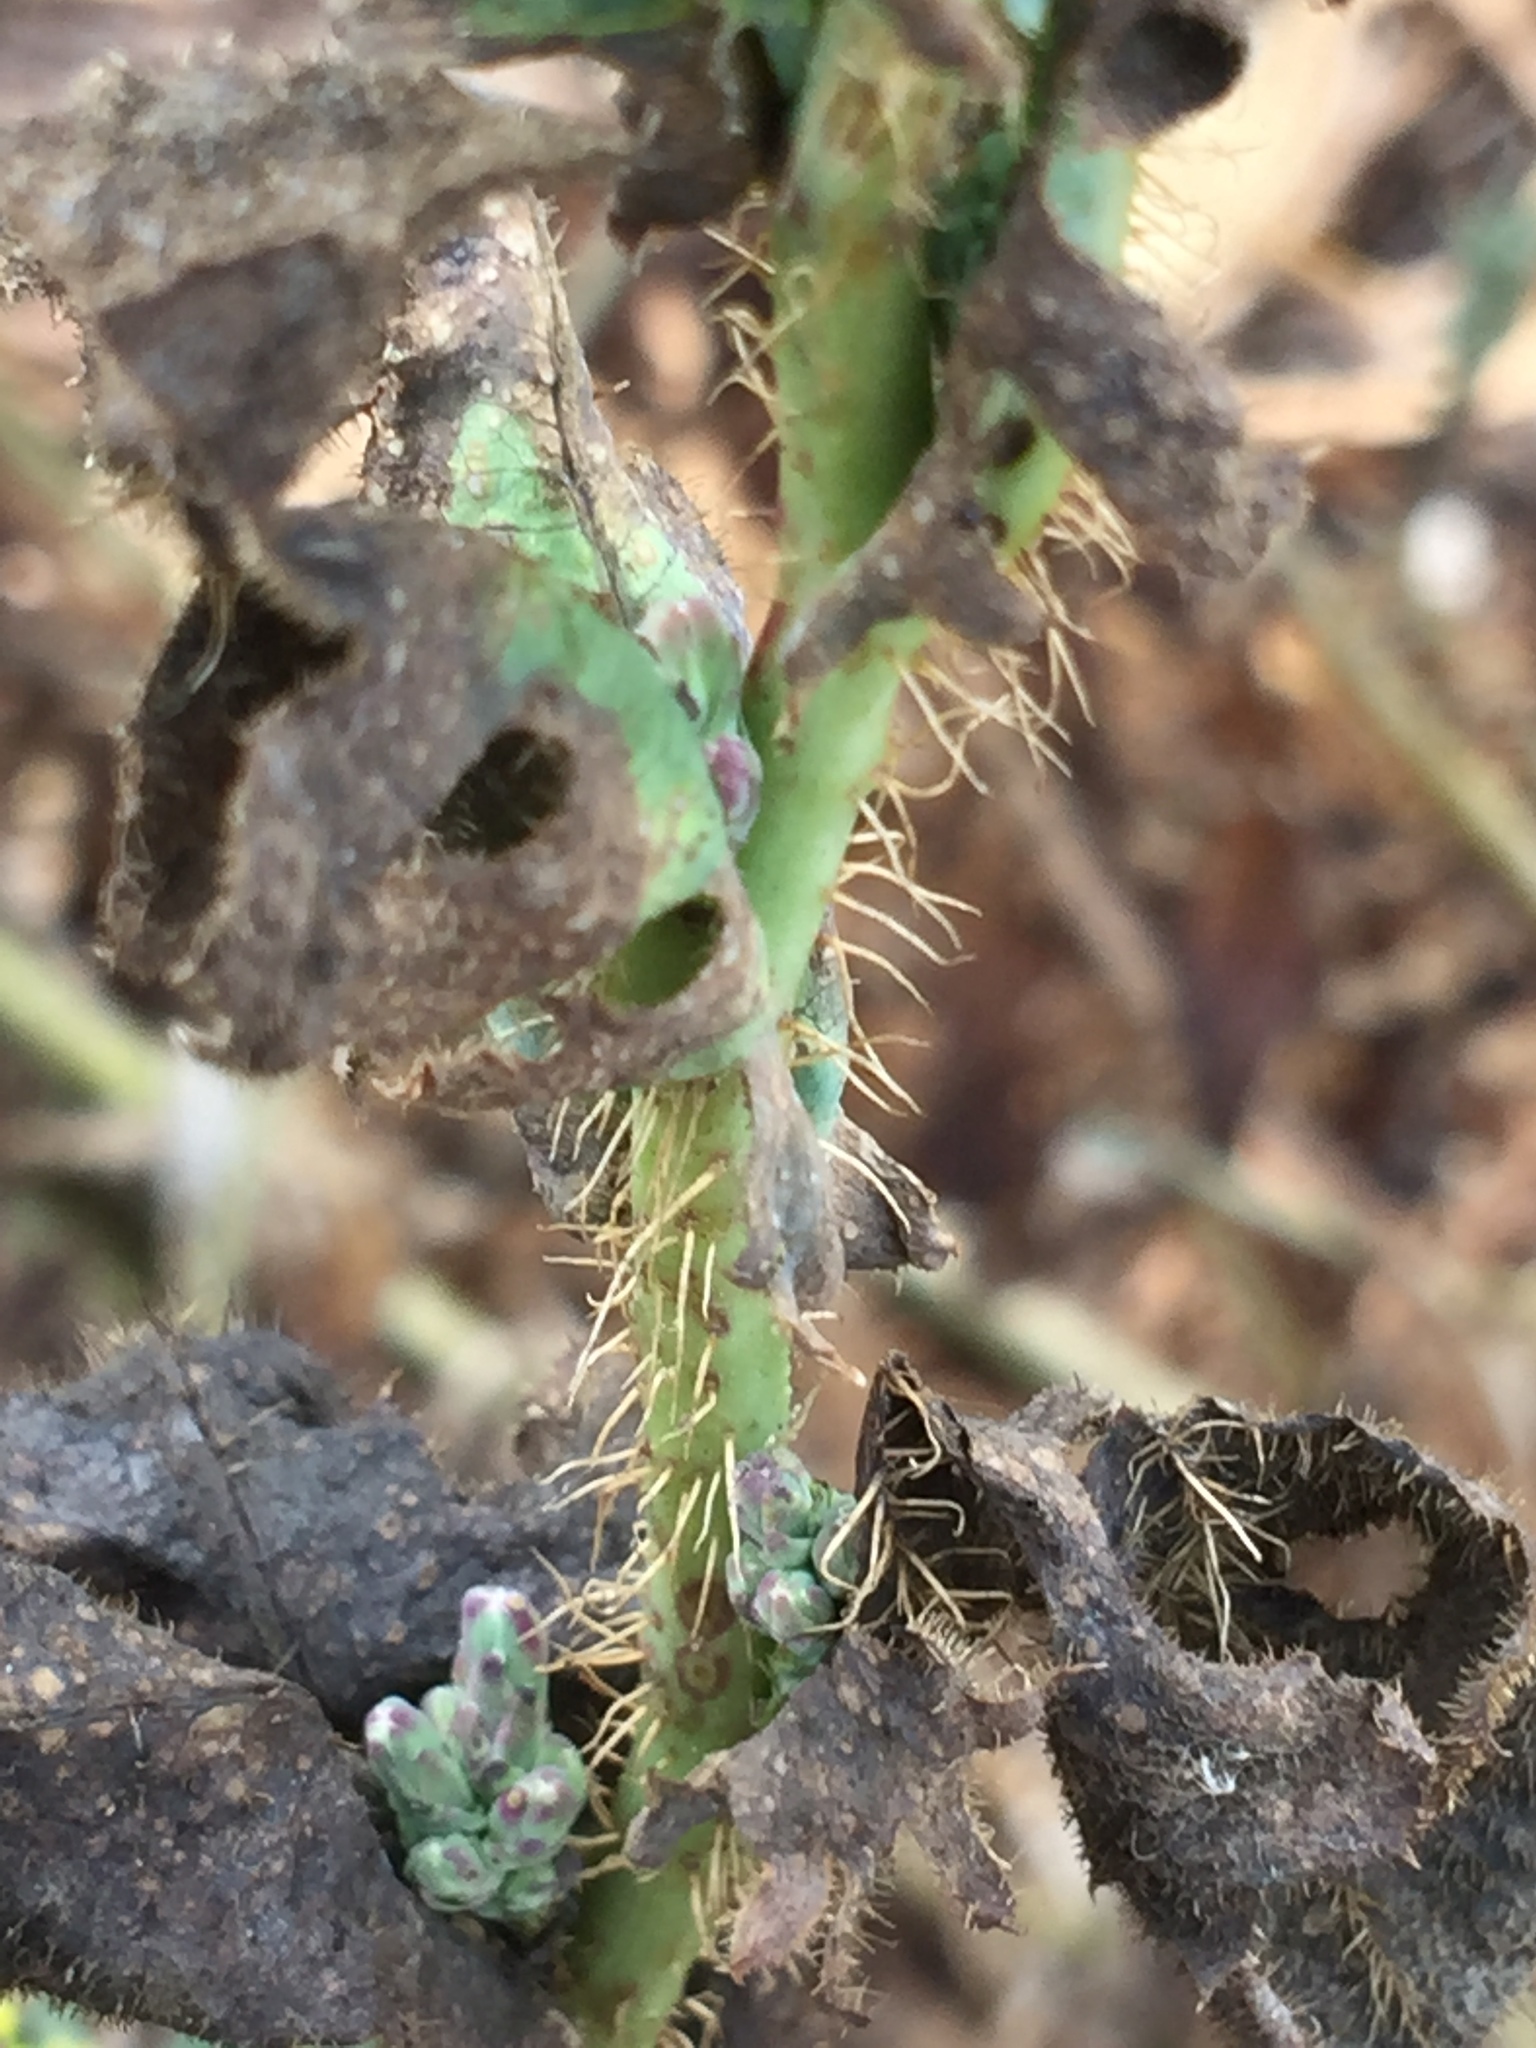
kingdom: Plantae
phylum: Tracheophyta
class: Magnoliopsida
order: Asterales
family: Asteraceae
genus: Lactuca
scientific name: Lactuca serriola
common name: Prickly lettuce
